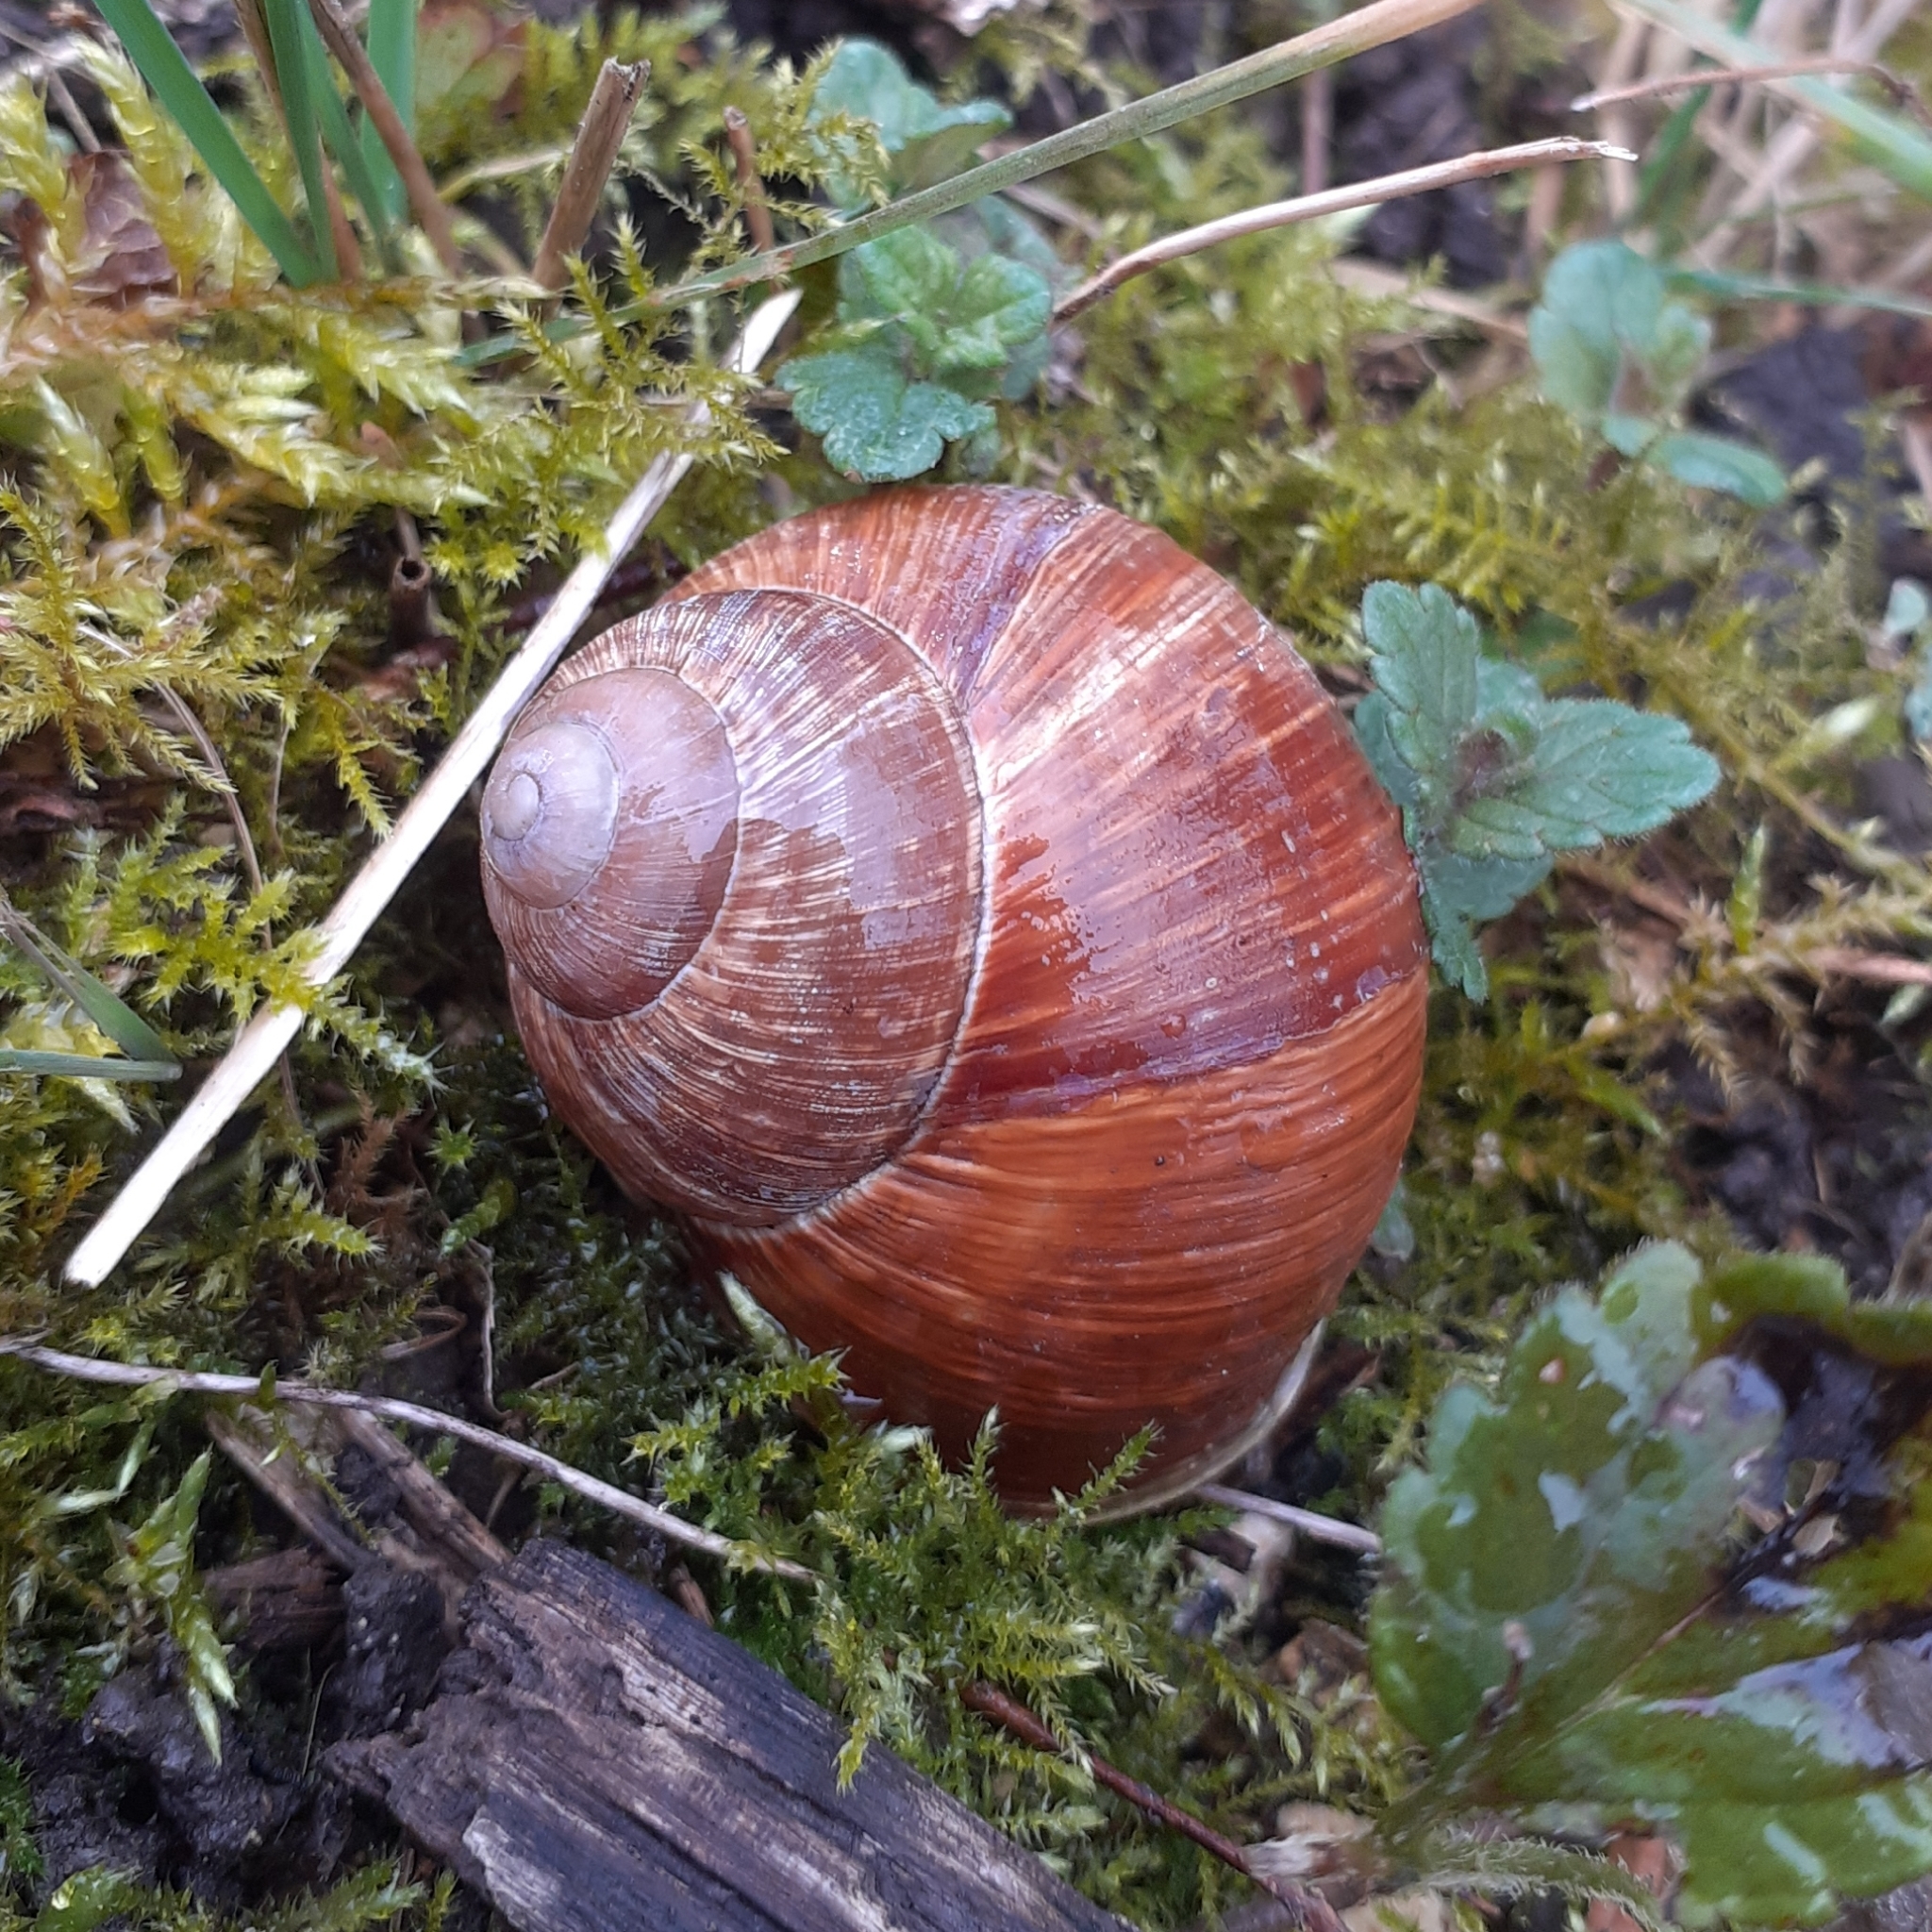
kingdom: Animalia
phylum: Mollusca
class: Gastropoda
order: Stylommatophora
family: Helicidae
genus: Helix
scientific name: Helix pomatia
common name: Roman snail
